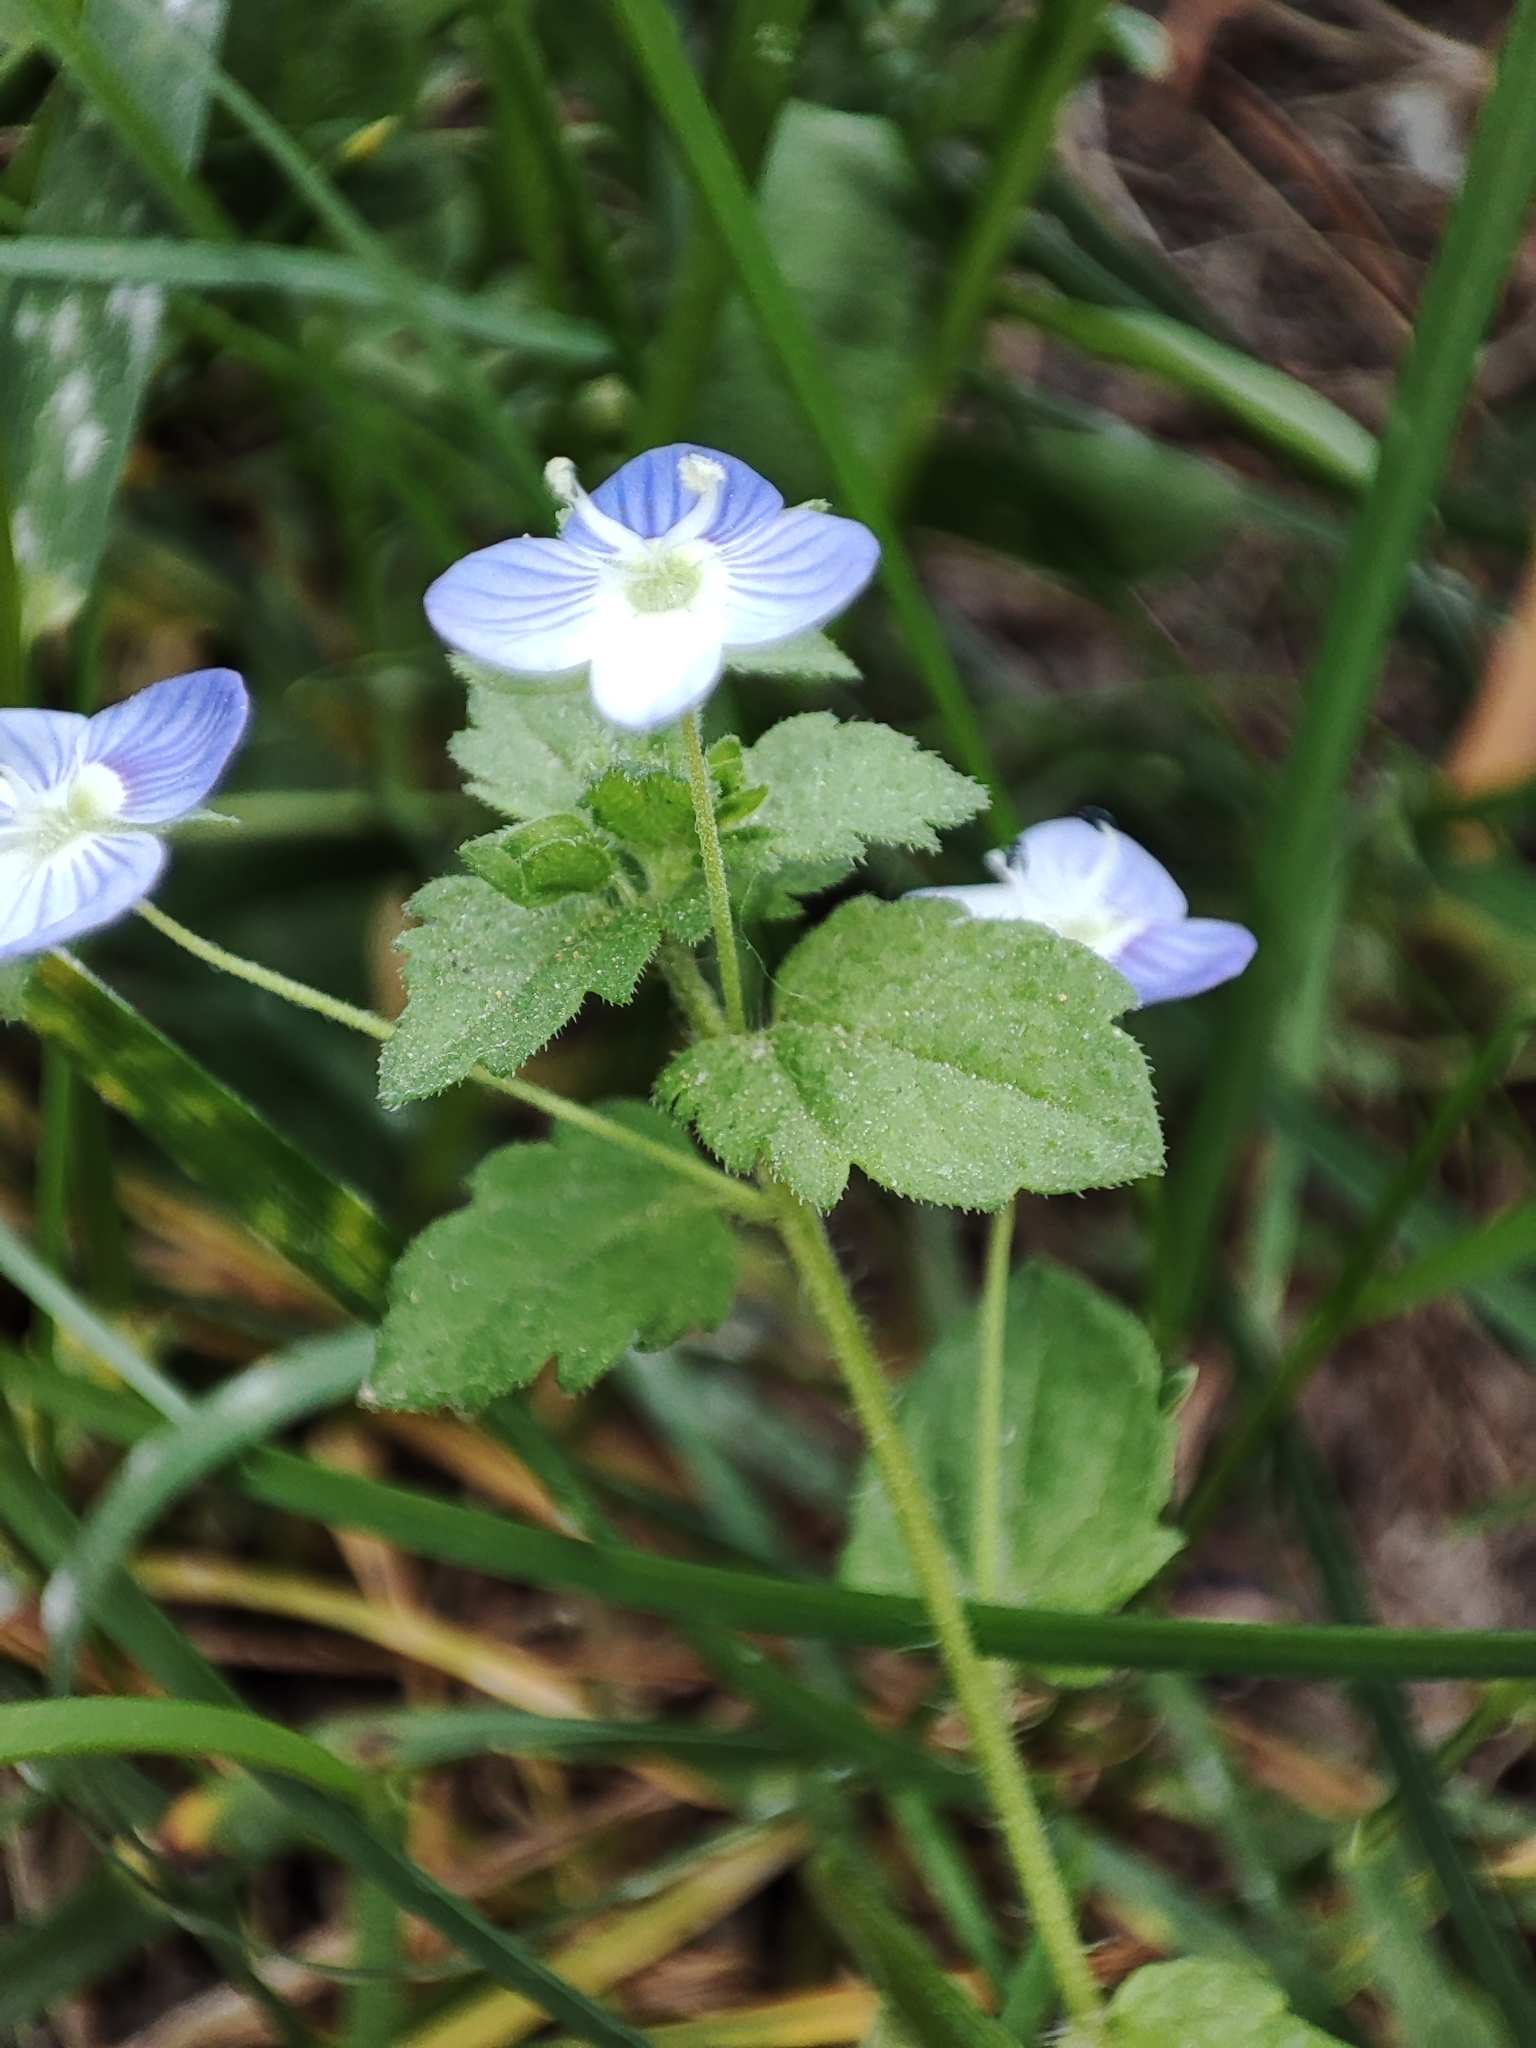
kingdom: Plantae
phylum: Tracheophyta
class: Magnoliopsida
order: Lamiales
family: Plantaginaceae
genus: Veronica
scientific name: Veronica persica
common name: Common field-speedwell
